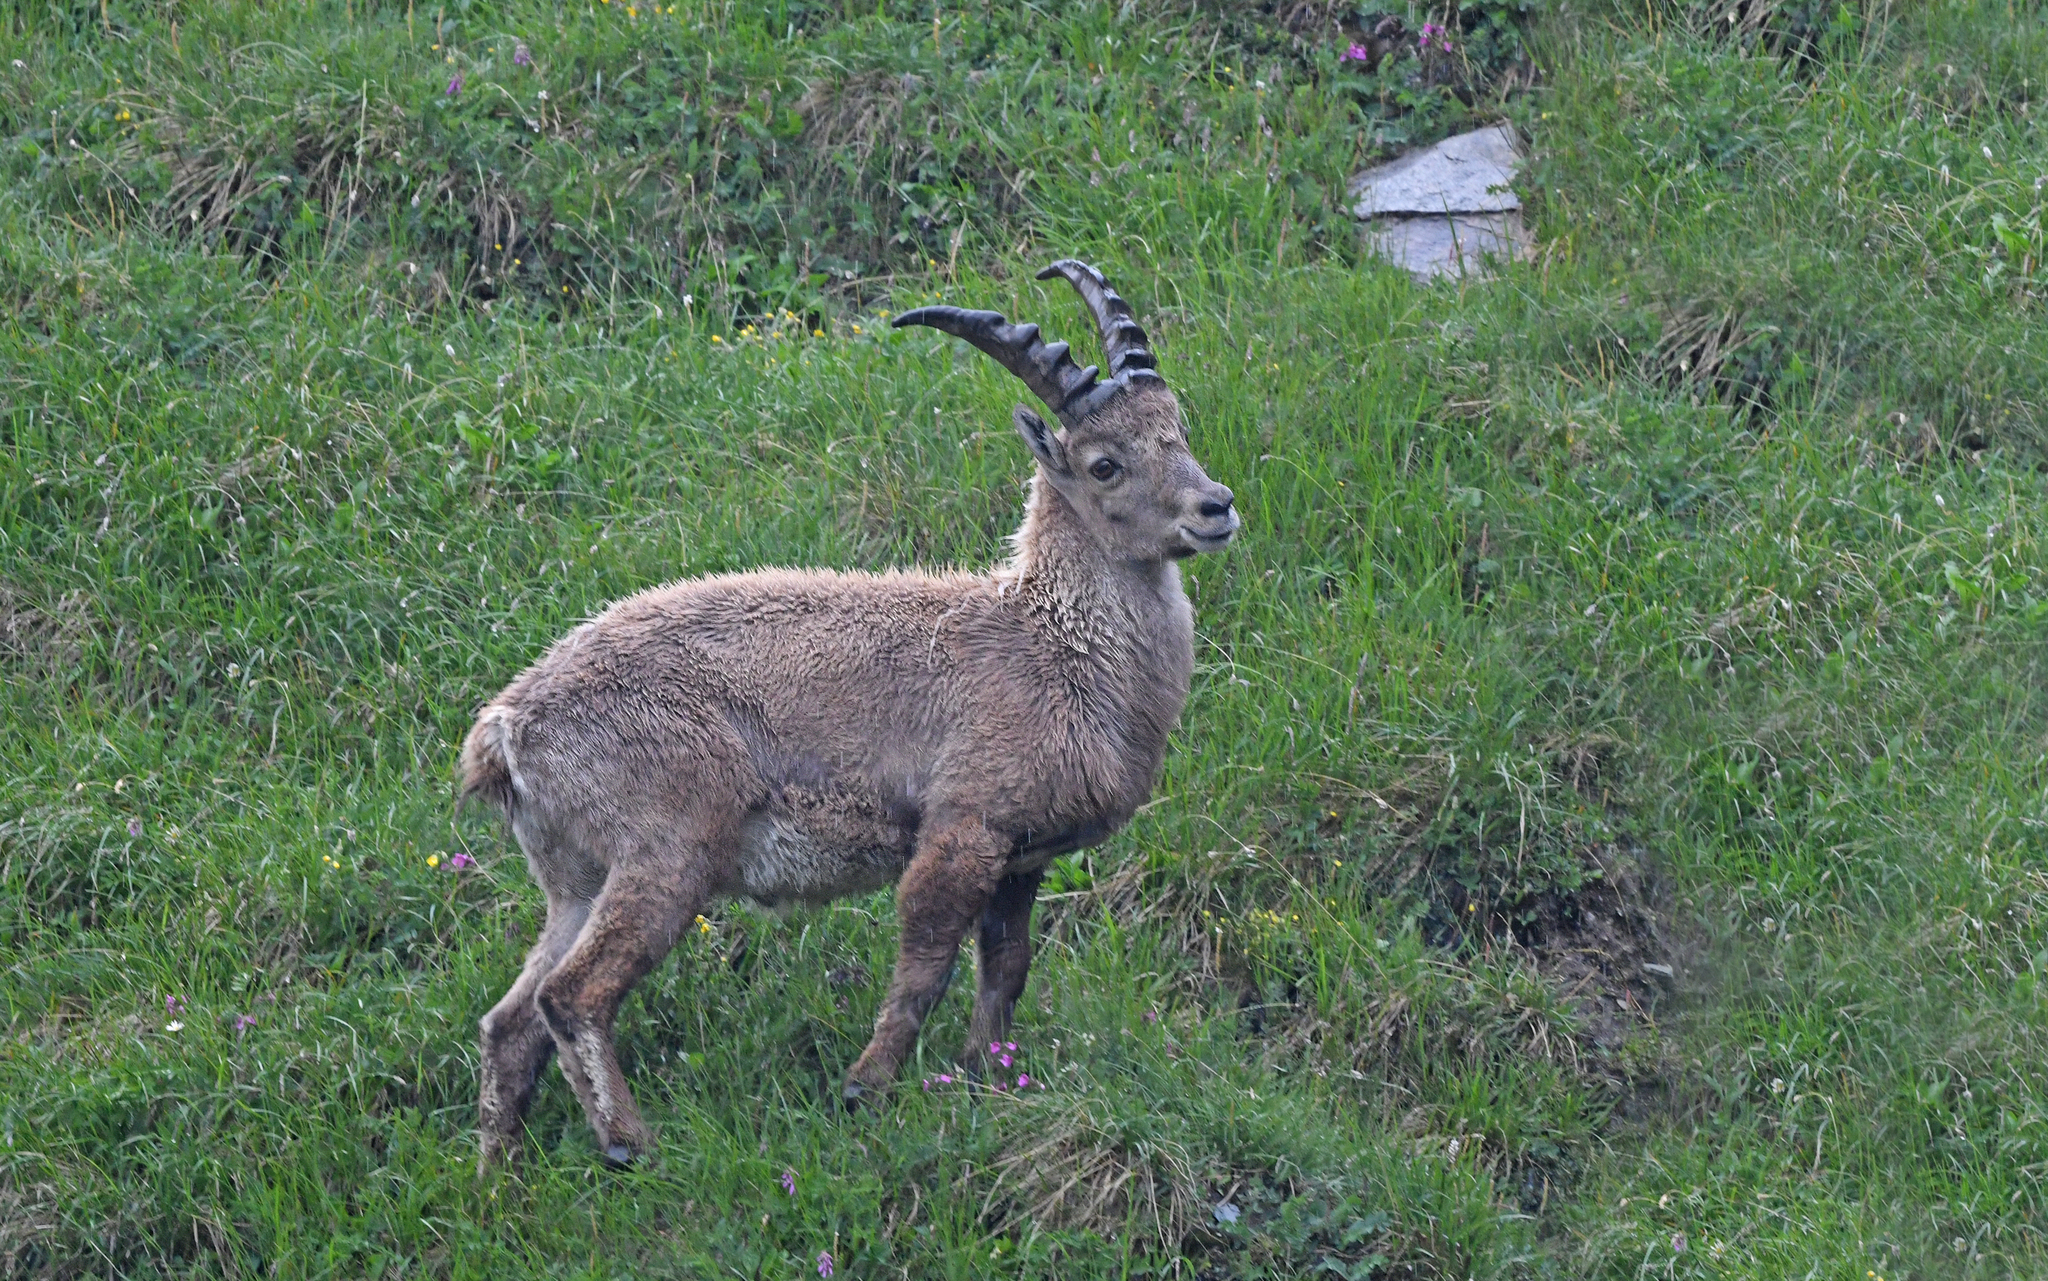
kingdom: Animalia
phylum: Chordata
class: Mammalia
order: Artiodactyla
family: Bovidae
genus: Capra
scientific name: Capra ibex
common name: Alpine ibex
